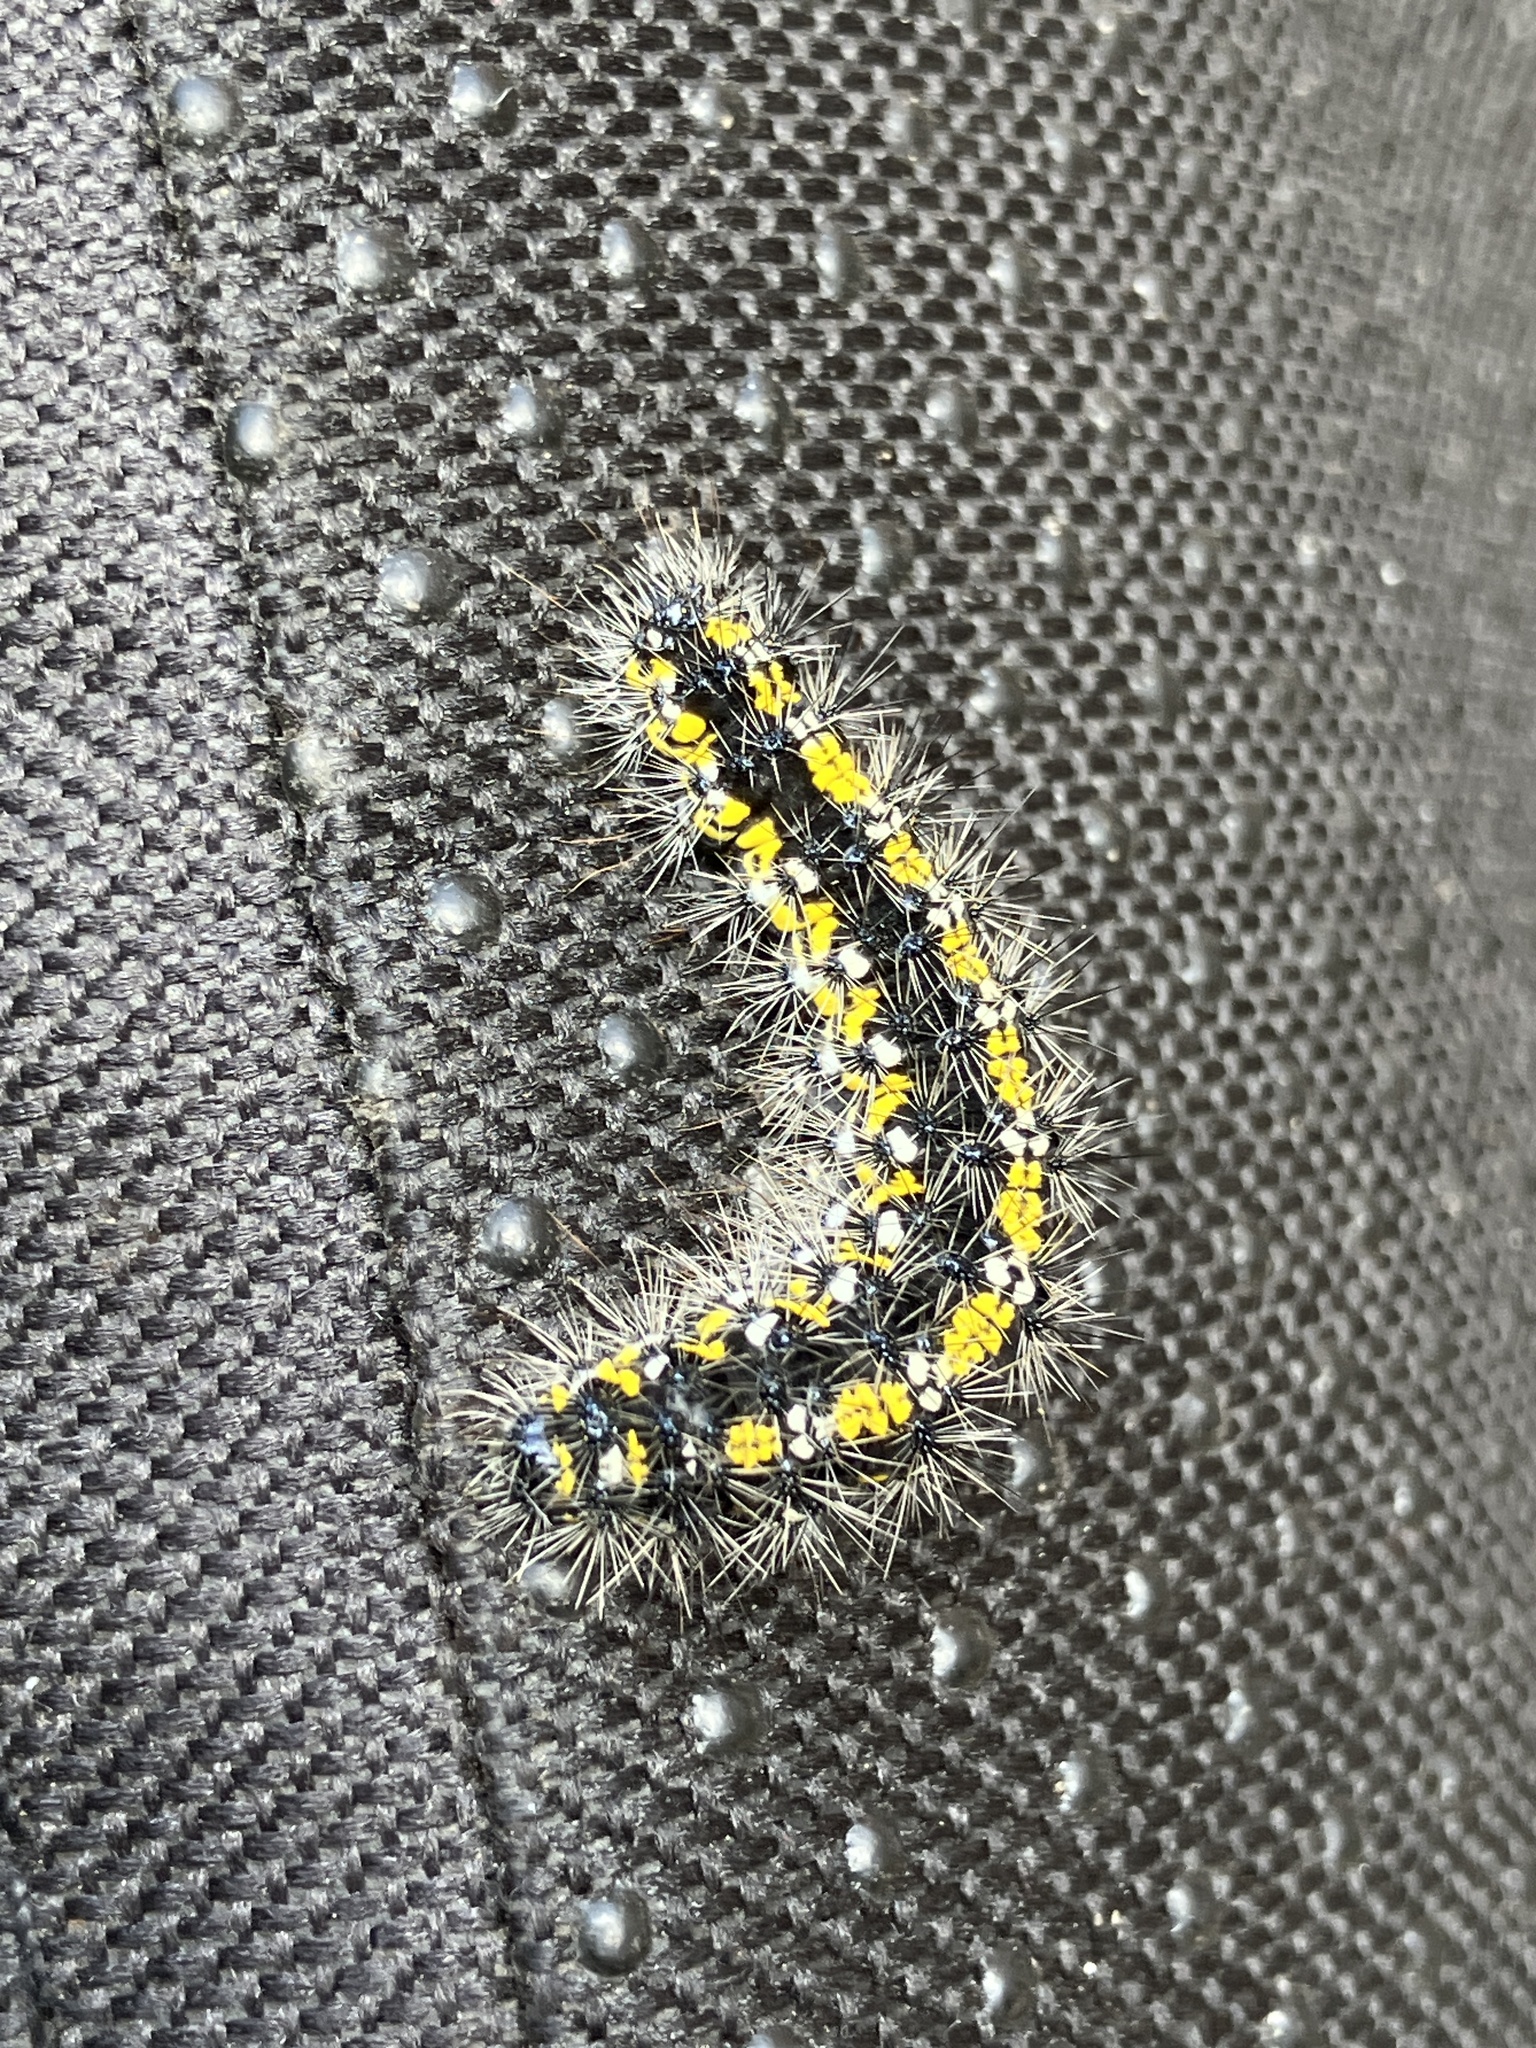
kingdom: Animalia
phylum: Arthropoda
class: Insecta
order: Lepidoptera
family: Erebidae
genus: Callimorpha
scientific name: Callimorpha dominula
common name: Scarlet tiger
